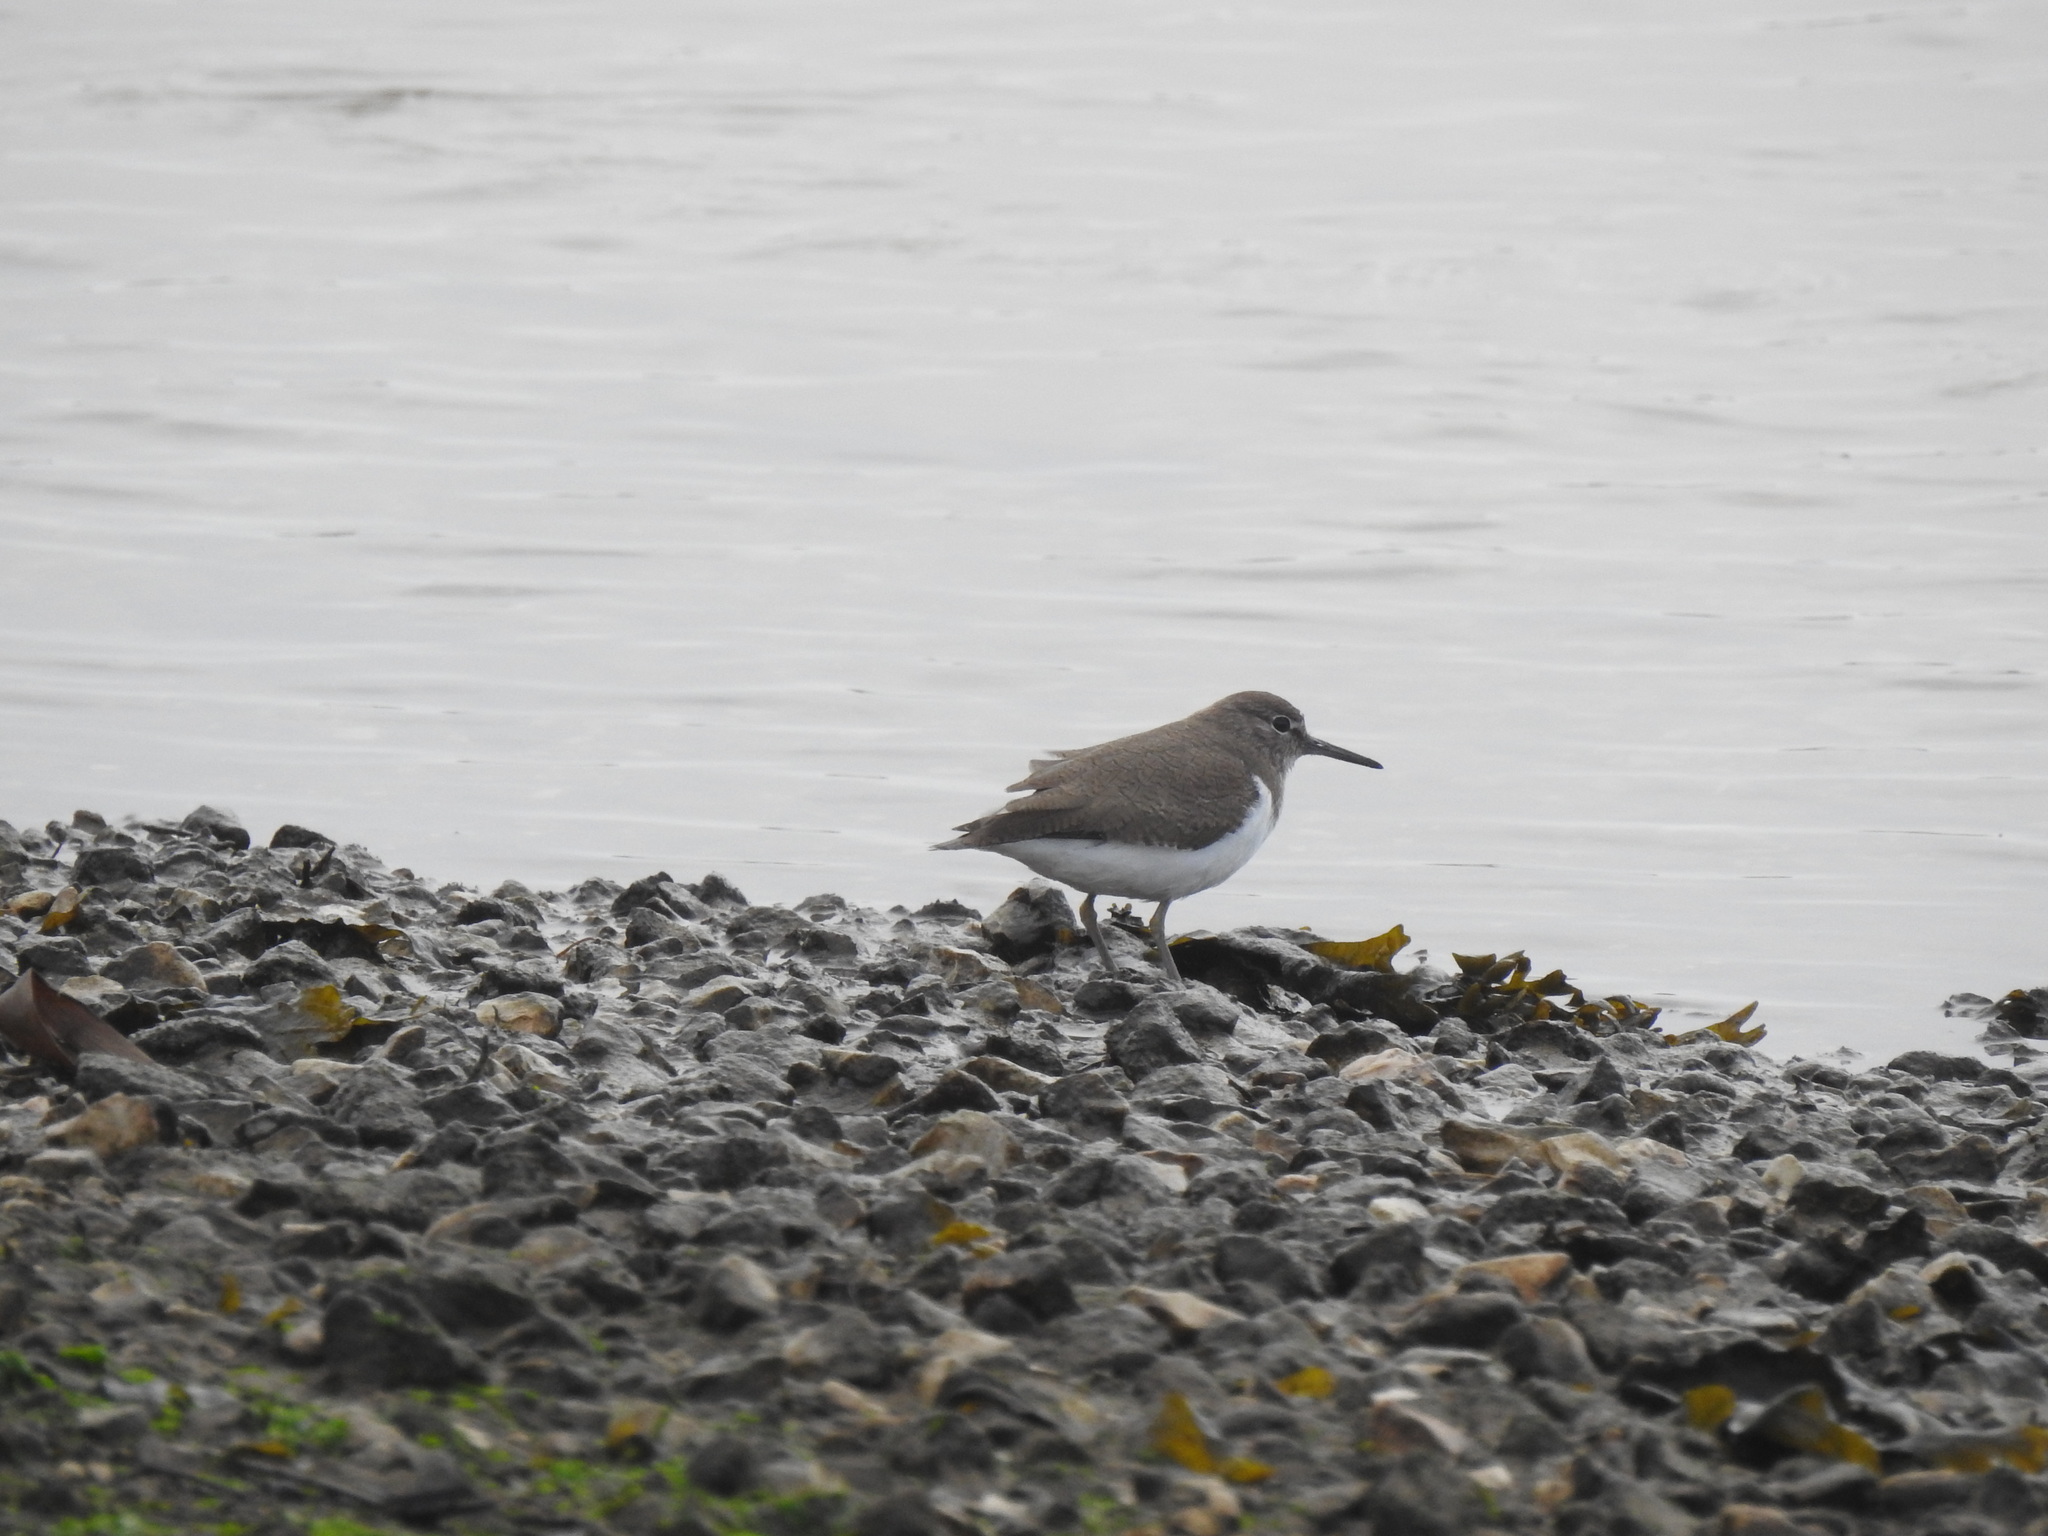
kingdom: Animalia
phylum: Chordata
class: Aves
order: Charadriiformes
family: Scolopacidae
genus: Actitis
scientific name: Actitis hypoleucos
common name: Common sandpiper
